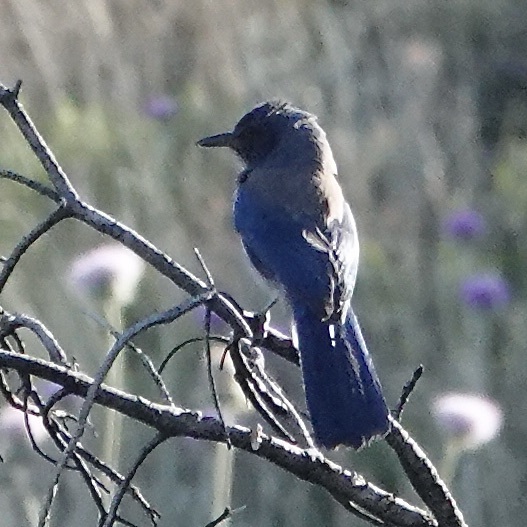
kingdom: Animalia
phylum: Chordata
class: Aves
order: Passeriformes
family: Corvidae
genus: Aphelocoma
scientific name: Aphelocoma woodhouseii
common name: Woodhouse's scrub-jay
